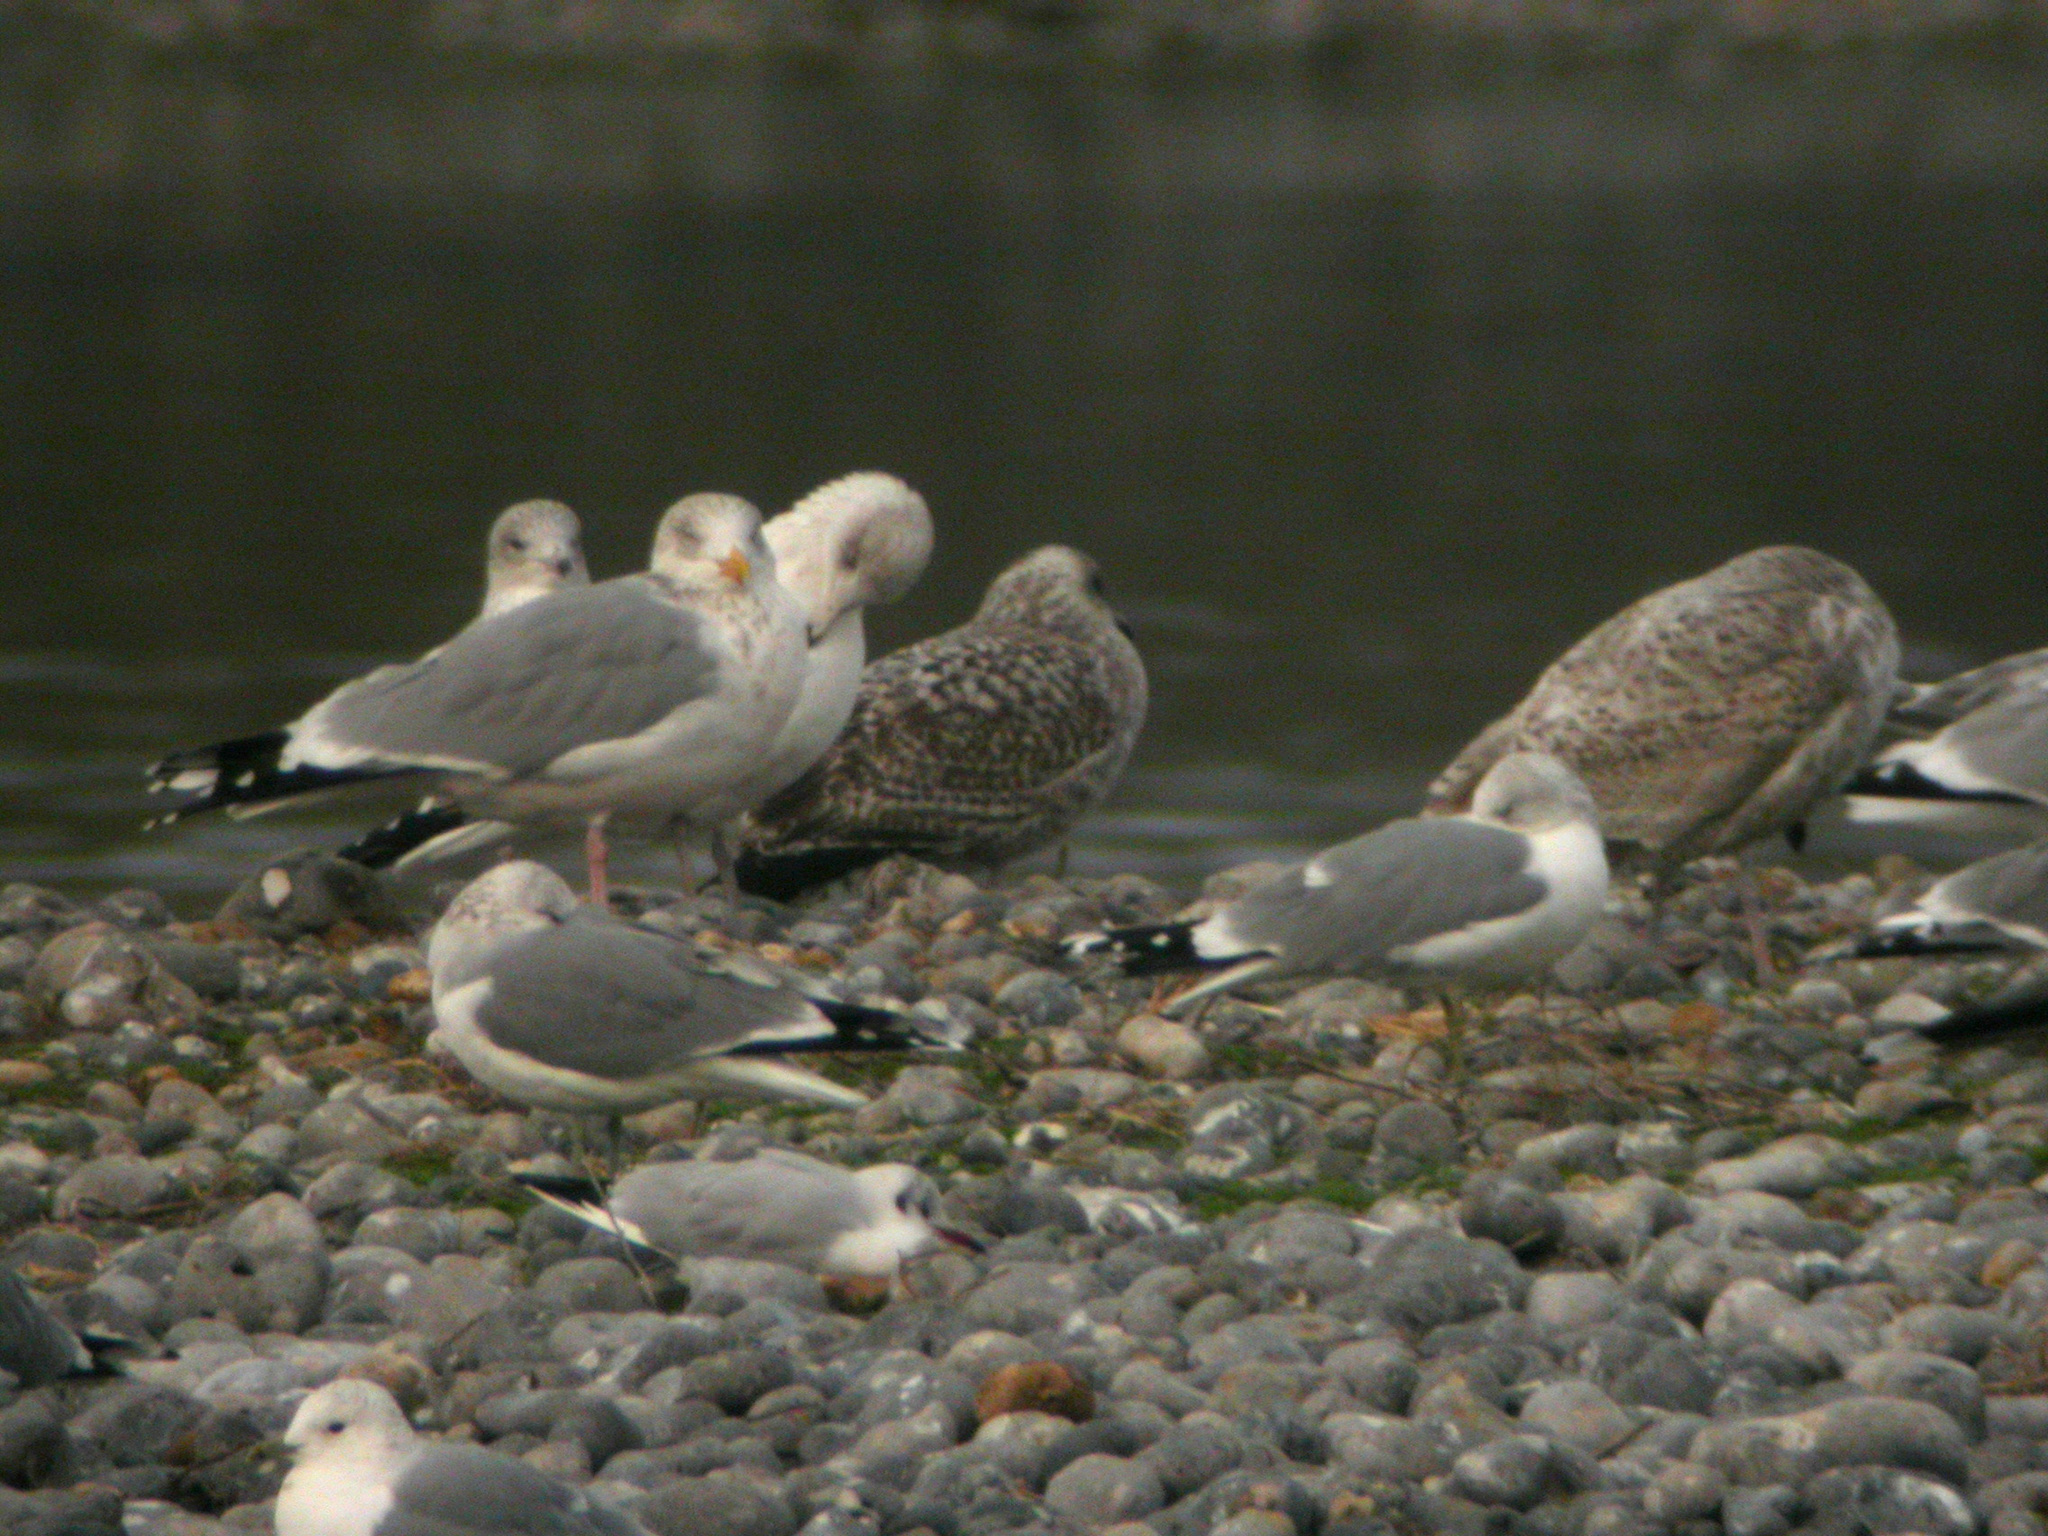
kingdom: Animalia
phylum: Chordata
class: Aves
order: Charadriiformes
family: Laridae
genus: Larus
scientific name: Larus argentatus
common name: Herring gull
